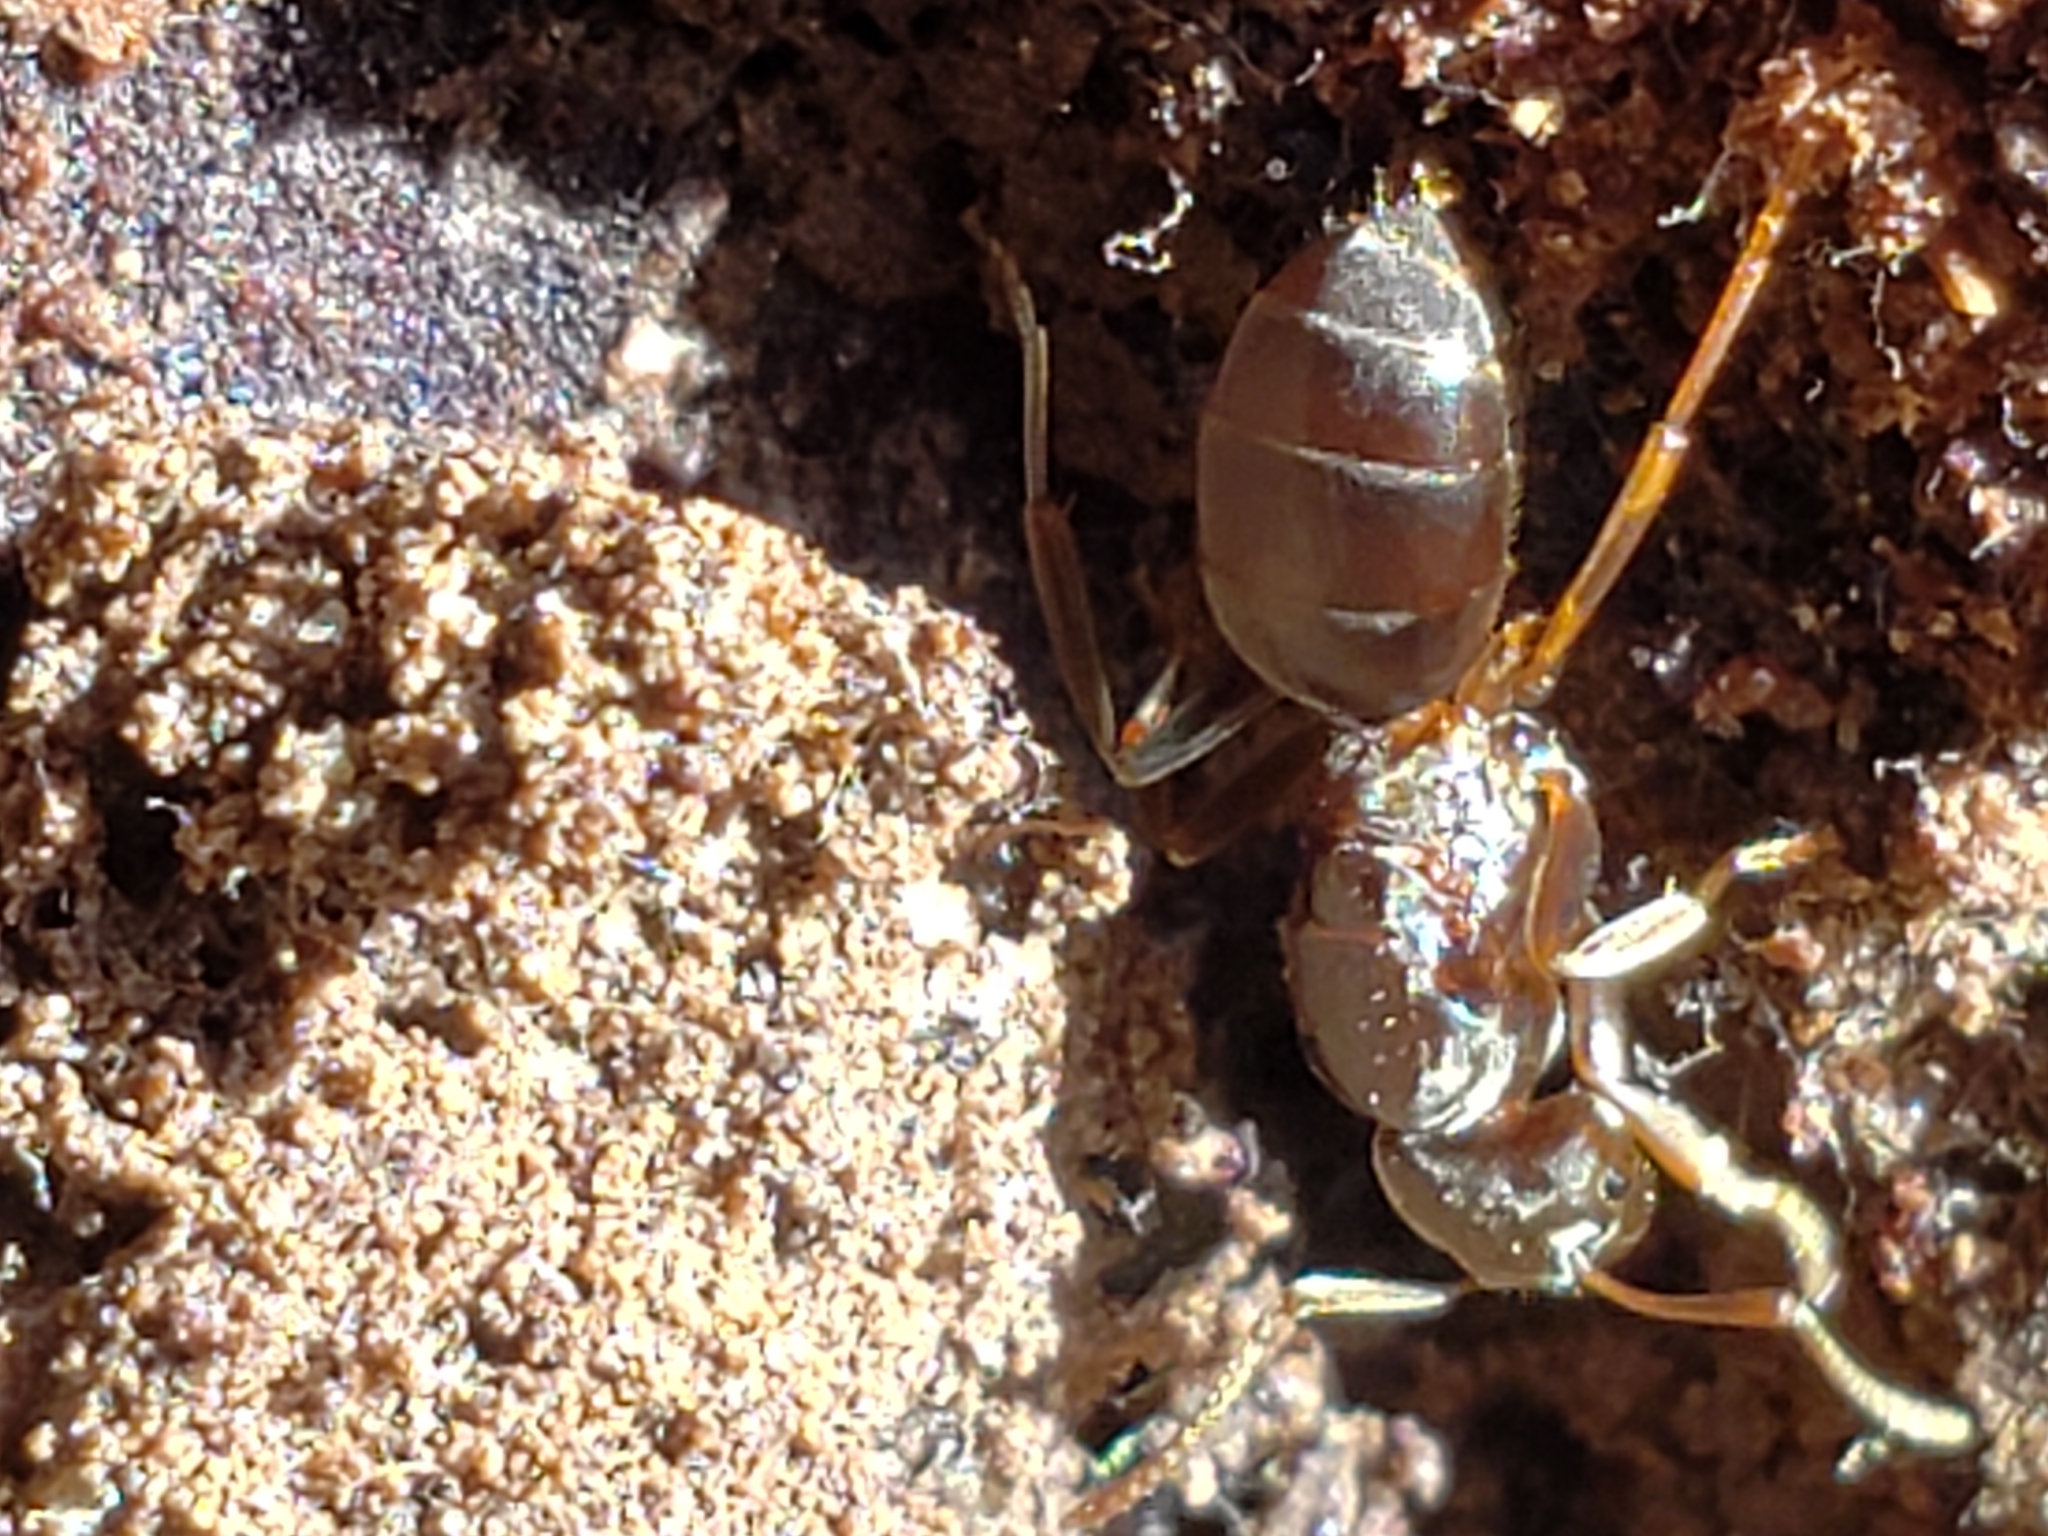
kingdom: Animalia
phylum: Arthropoda
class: Insecta
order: Hymenoptera
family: Formicidae
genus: Lasius
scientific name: Lasius aphidicola
